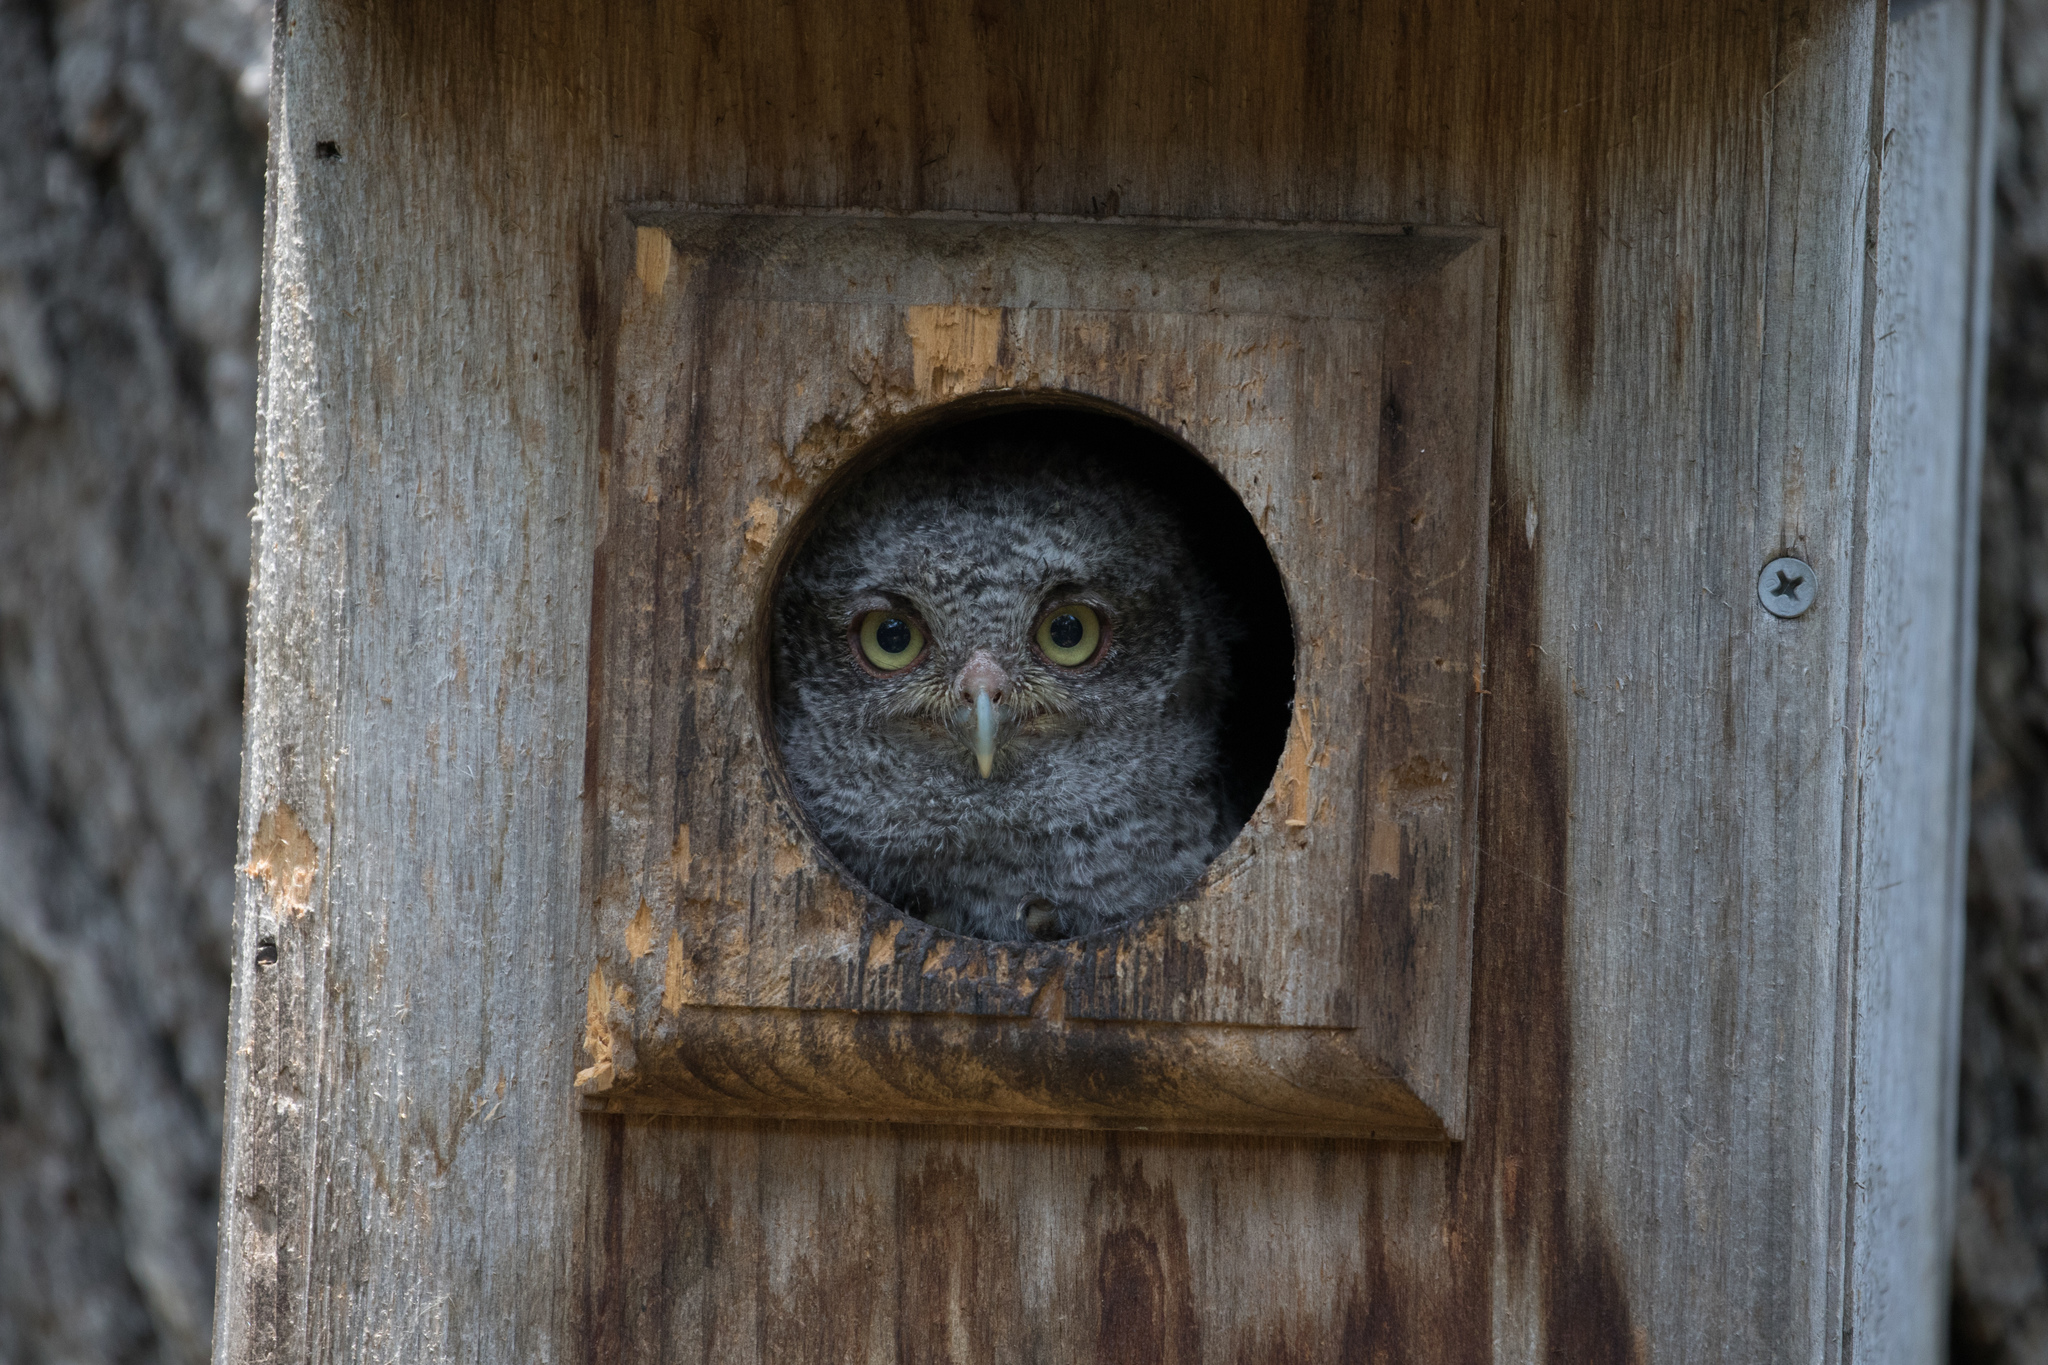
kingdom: Animalia
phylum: Chordata
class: Aves
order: Strigiformes
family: Strigidae
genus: Megascops
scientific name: Megascops asio
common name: Eastern screech-owl
